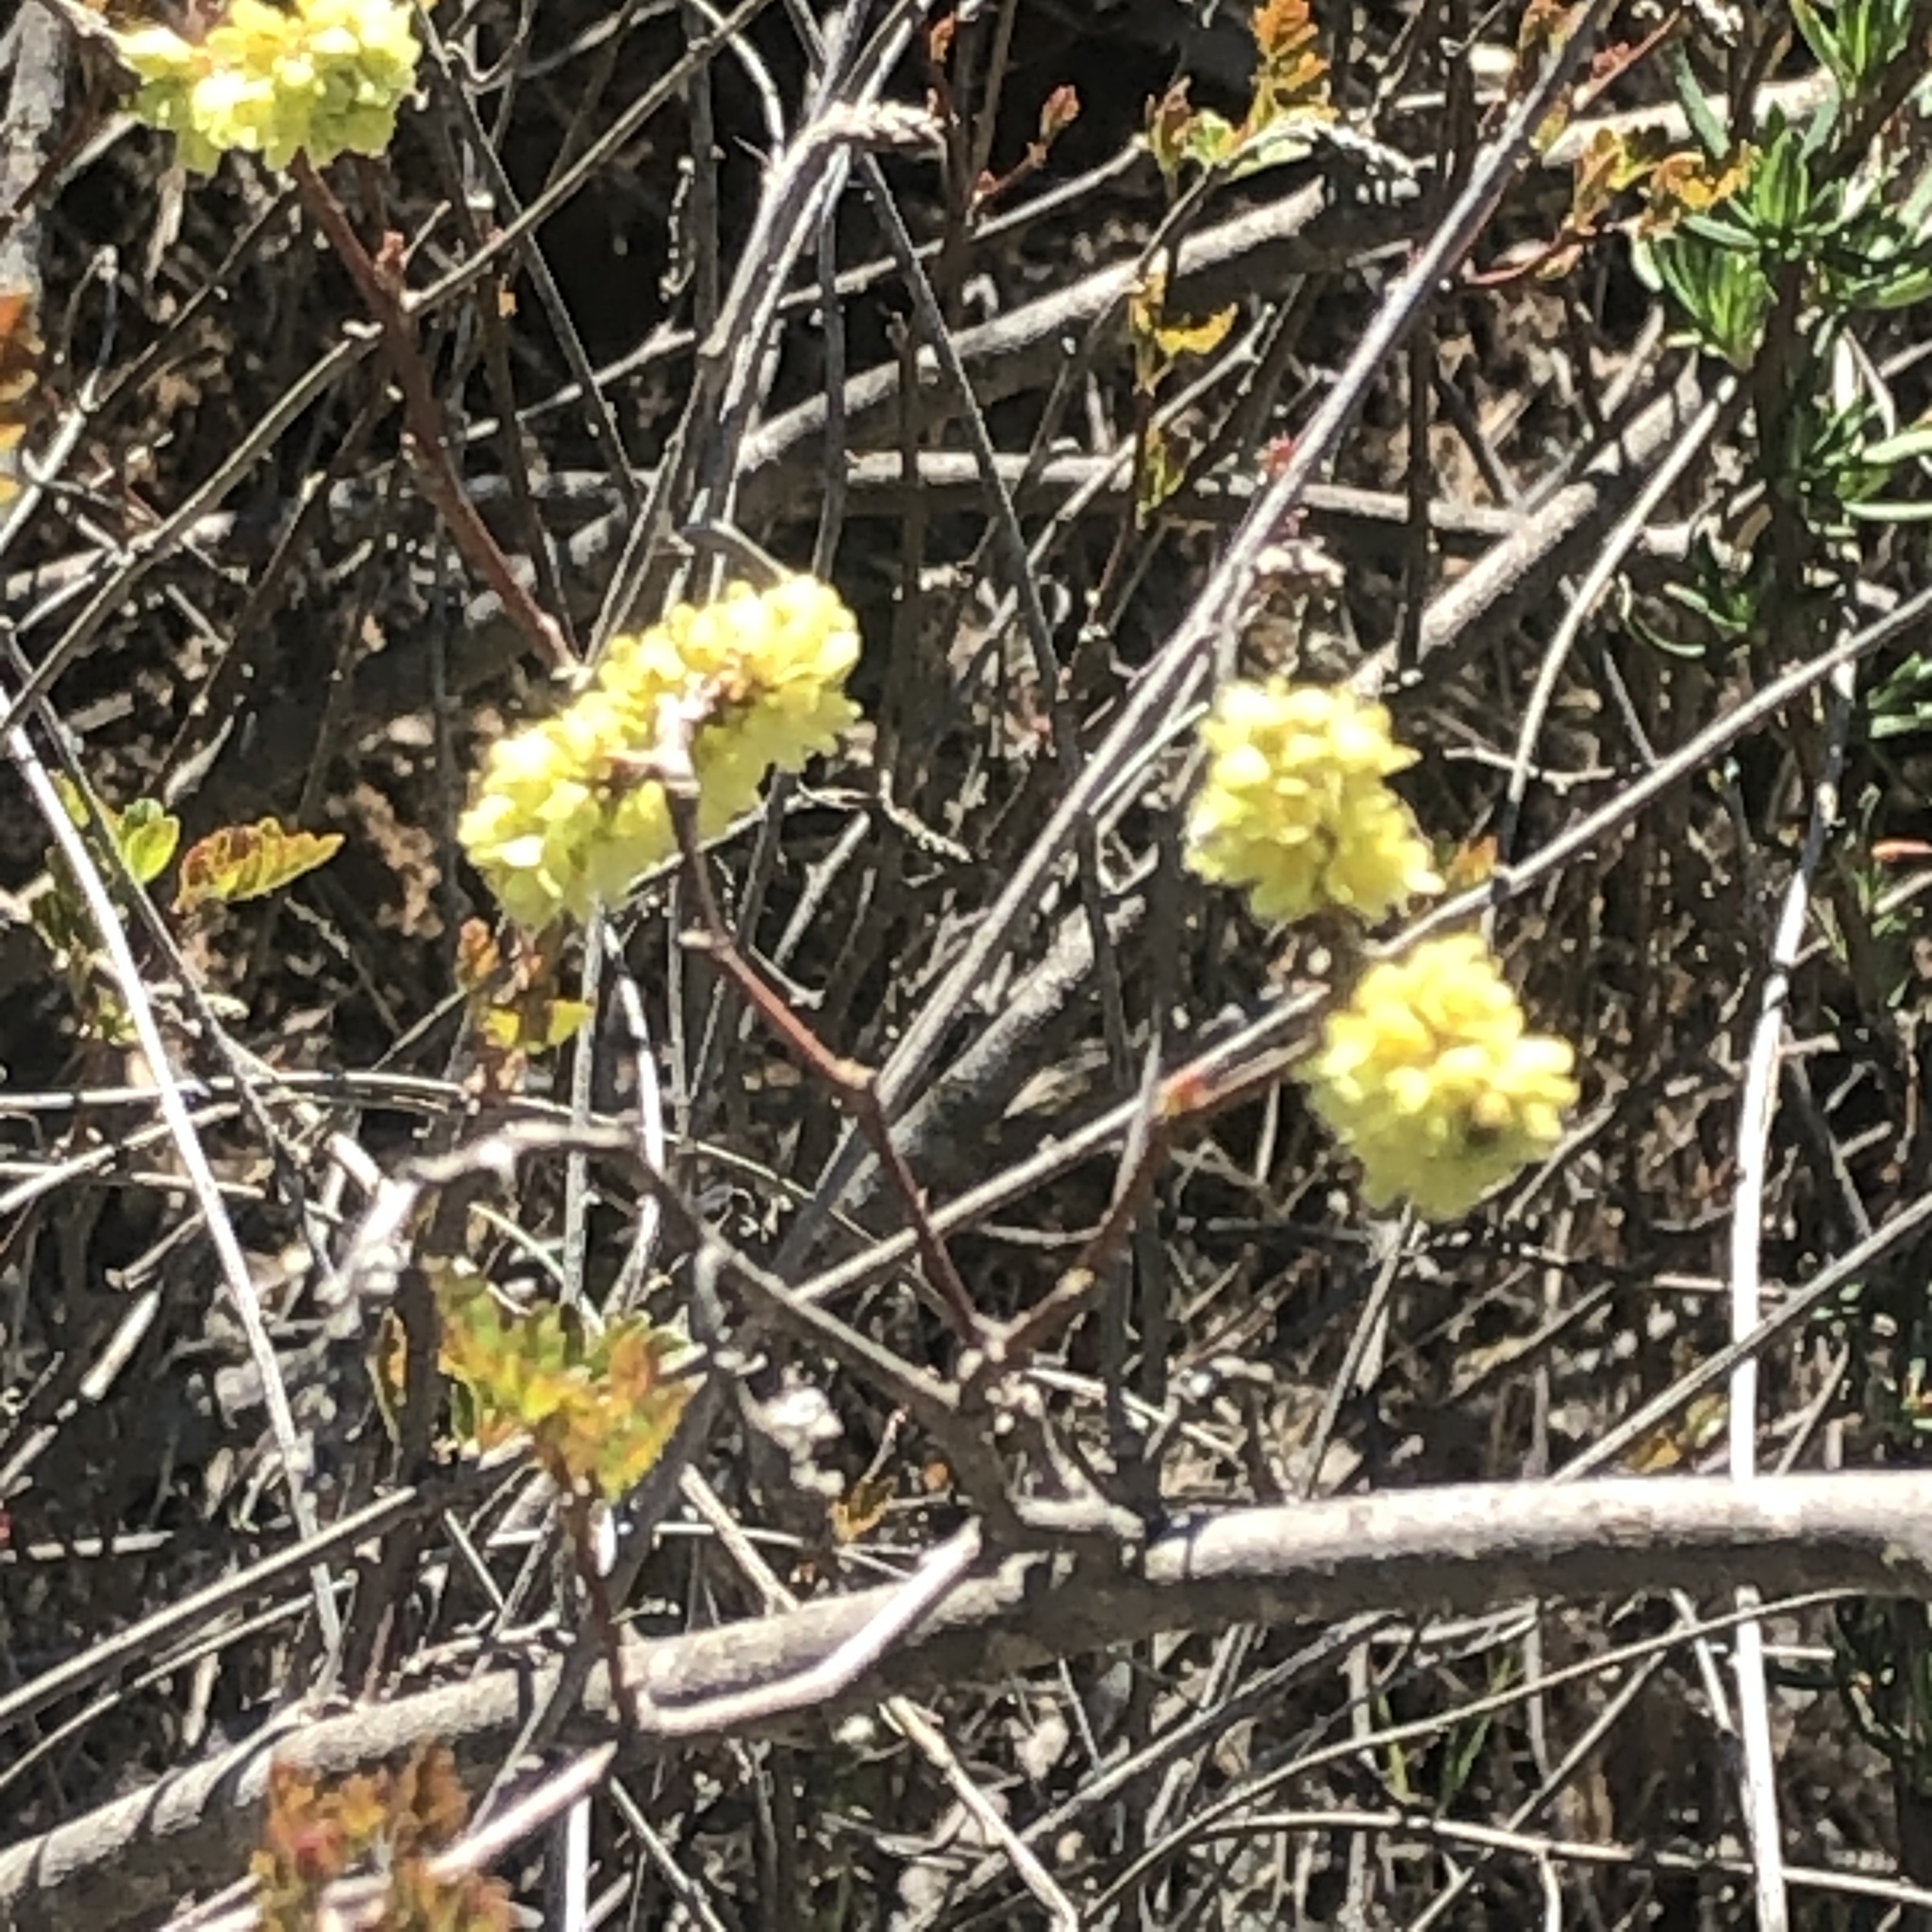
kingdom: Plantae
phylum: Tracheophyta
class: Magnoliopsida
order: Sapindales
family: Anacardiaceae
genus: Rhus
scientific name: Rhus aromatica
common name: Aromatic sumac
